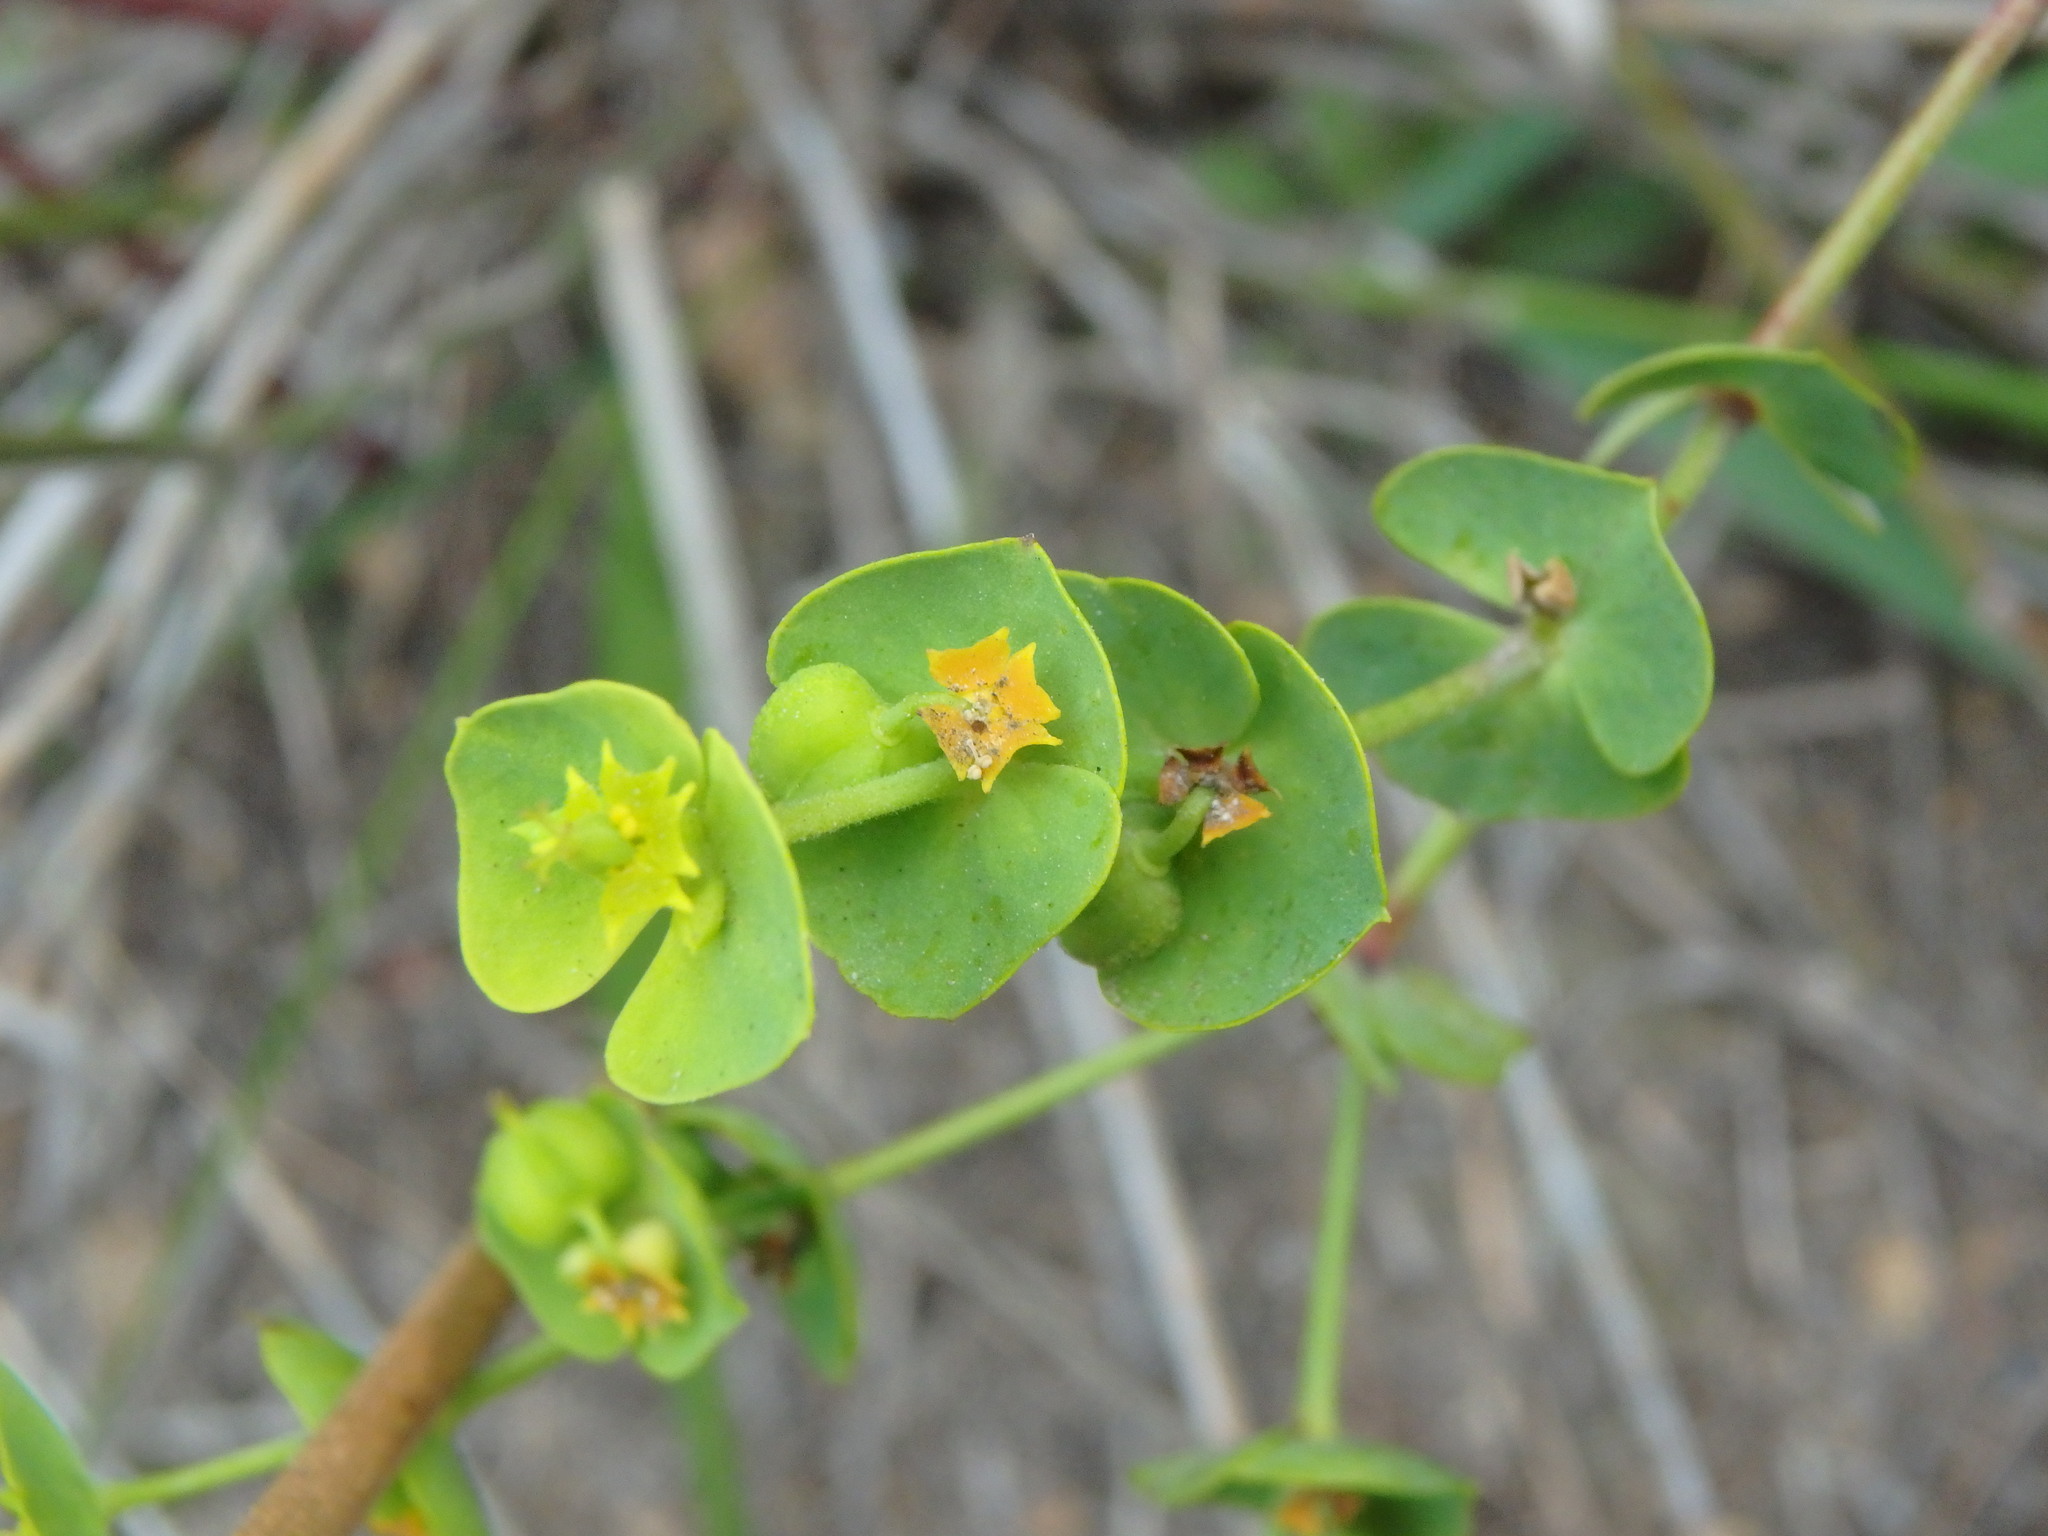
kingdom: Plantae
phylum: Tracheophyta
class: Magnoliopsida
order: Malpighiales
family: Euphorbiaceae
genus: Euphorbia
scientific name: Euphorbia segetalis
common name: Corn spurge
